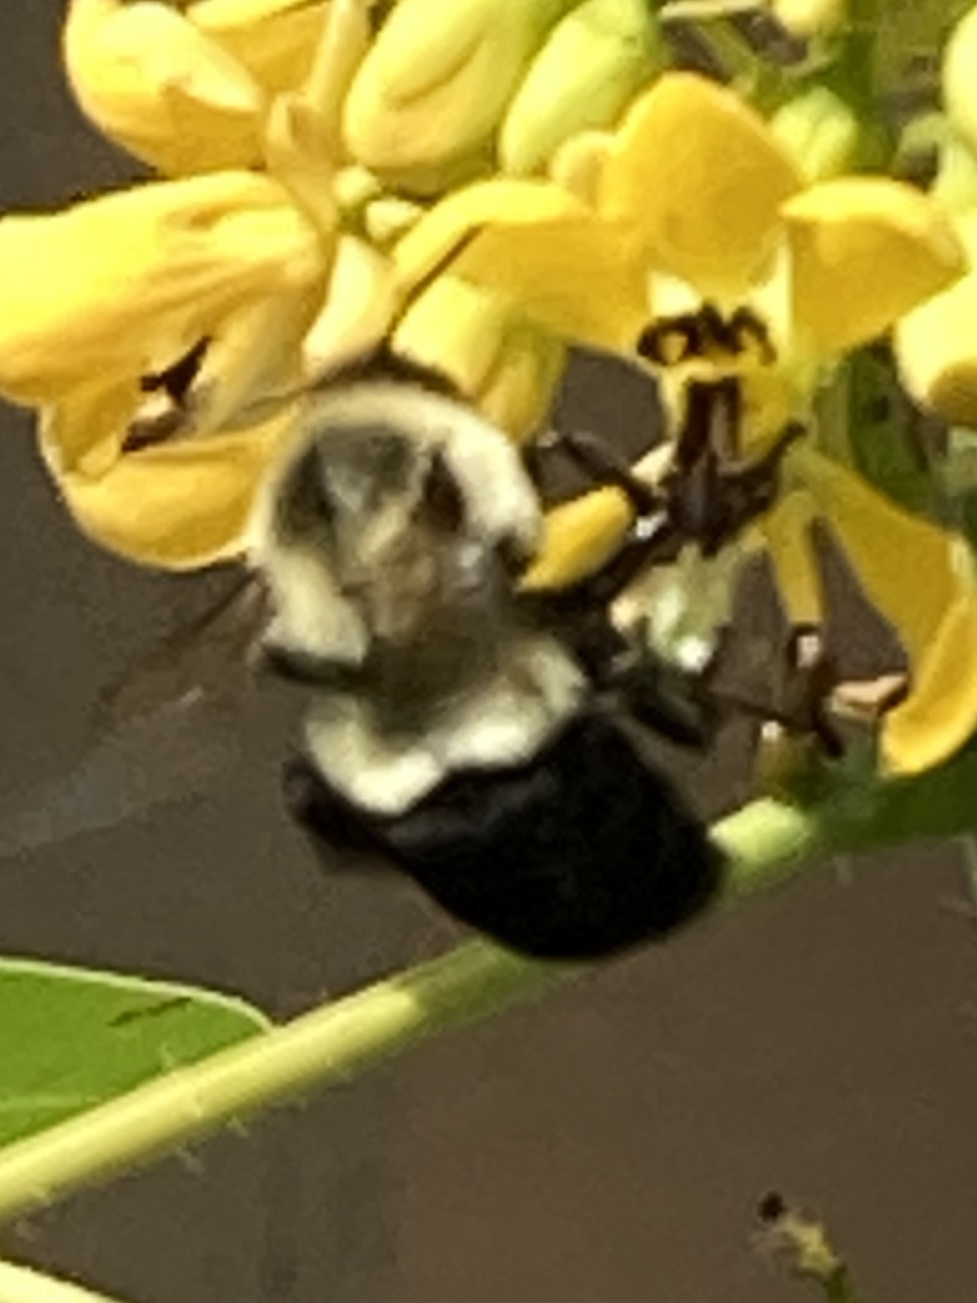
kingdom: Animalia
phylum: Arthropoda
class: Insecta
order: Hymenoptera
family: Apidae
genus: Bombus
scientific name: Bombus impatiens
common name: Common eastern bumble bee
